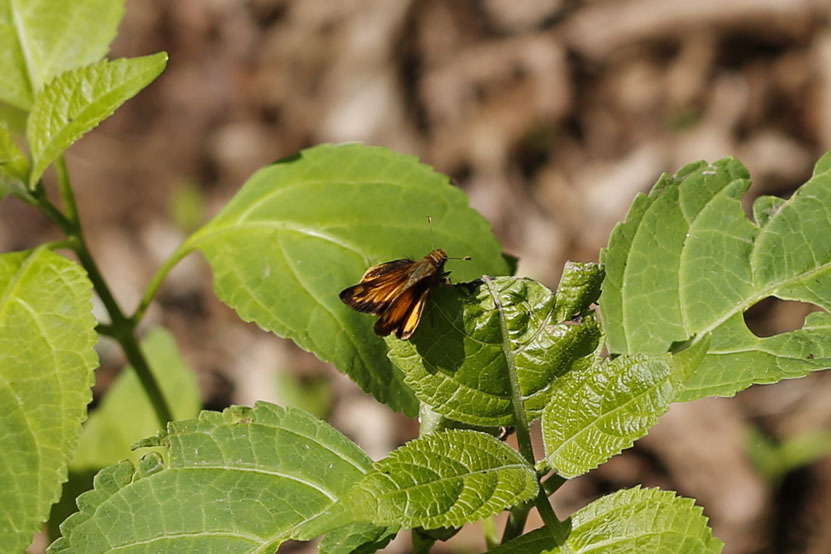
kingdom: Animalia
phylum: Arthropoda
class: Insecta
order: Lepidoptera
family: Hesperiidae
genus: Lon
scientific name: Lon zabulon
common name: Zabulon skipper
